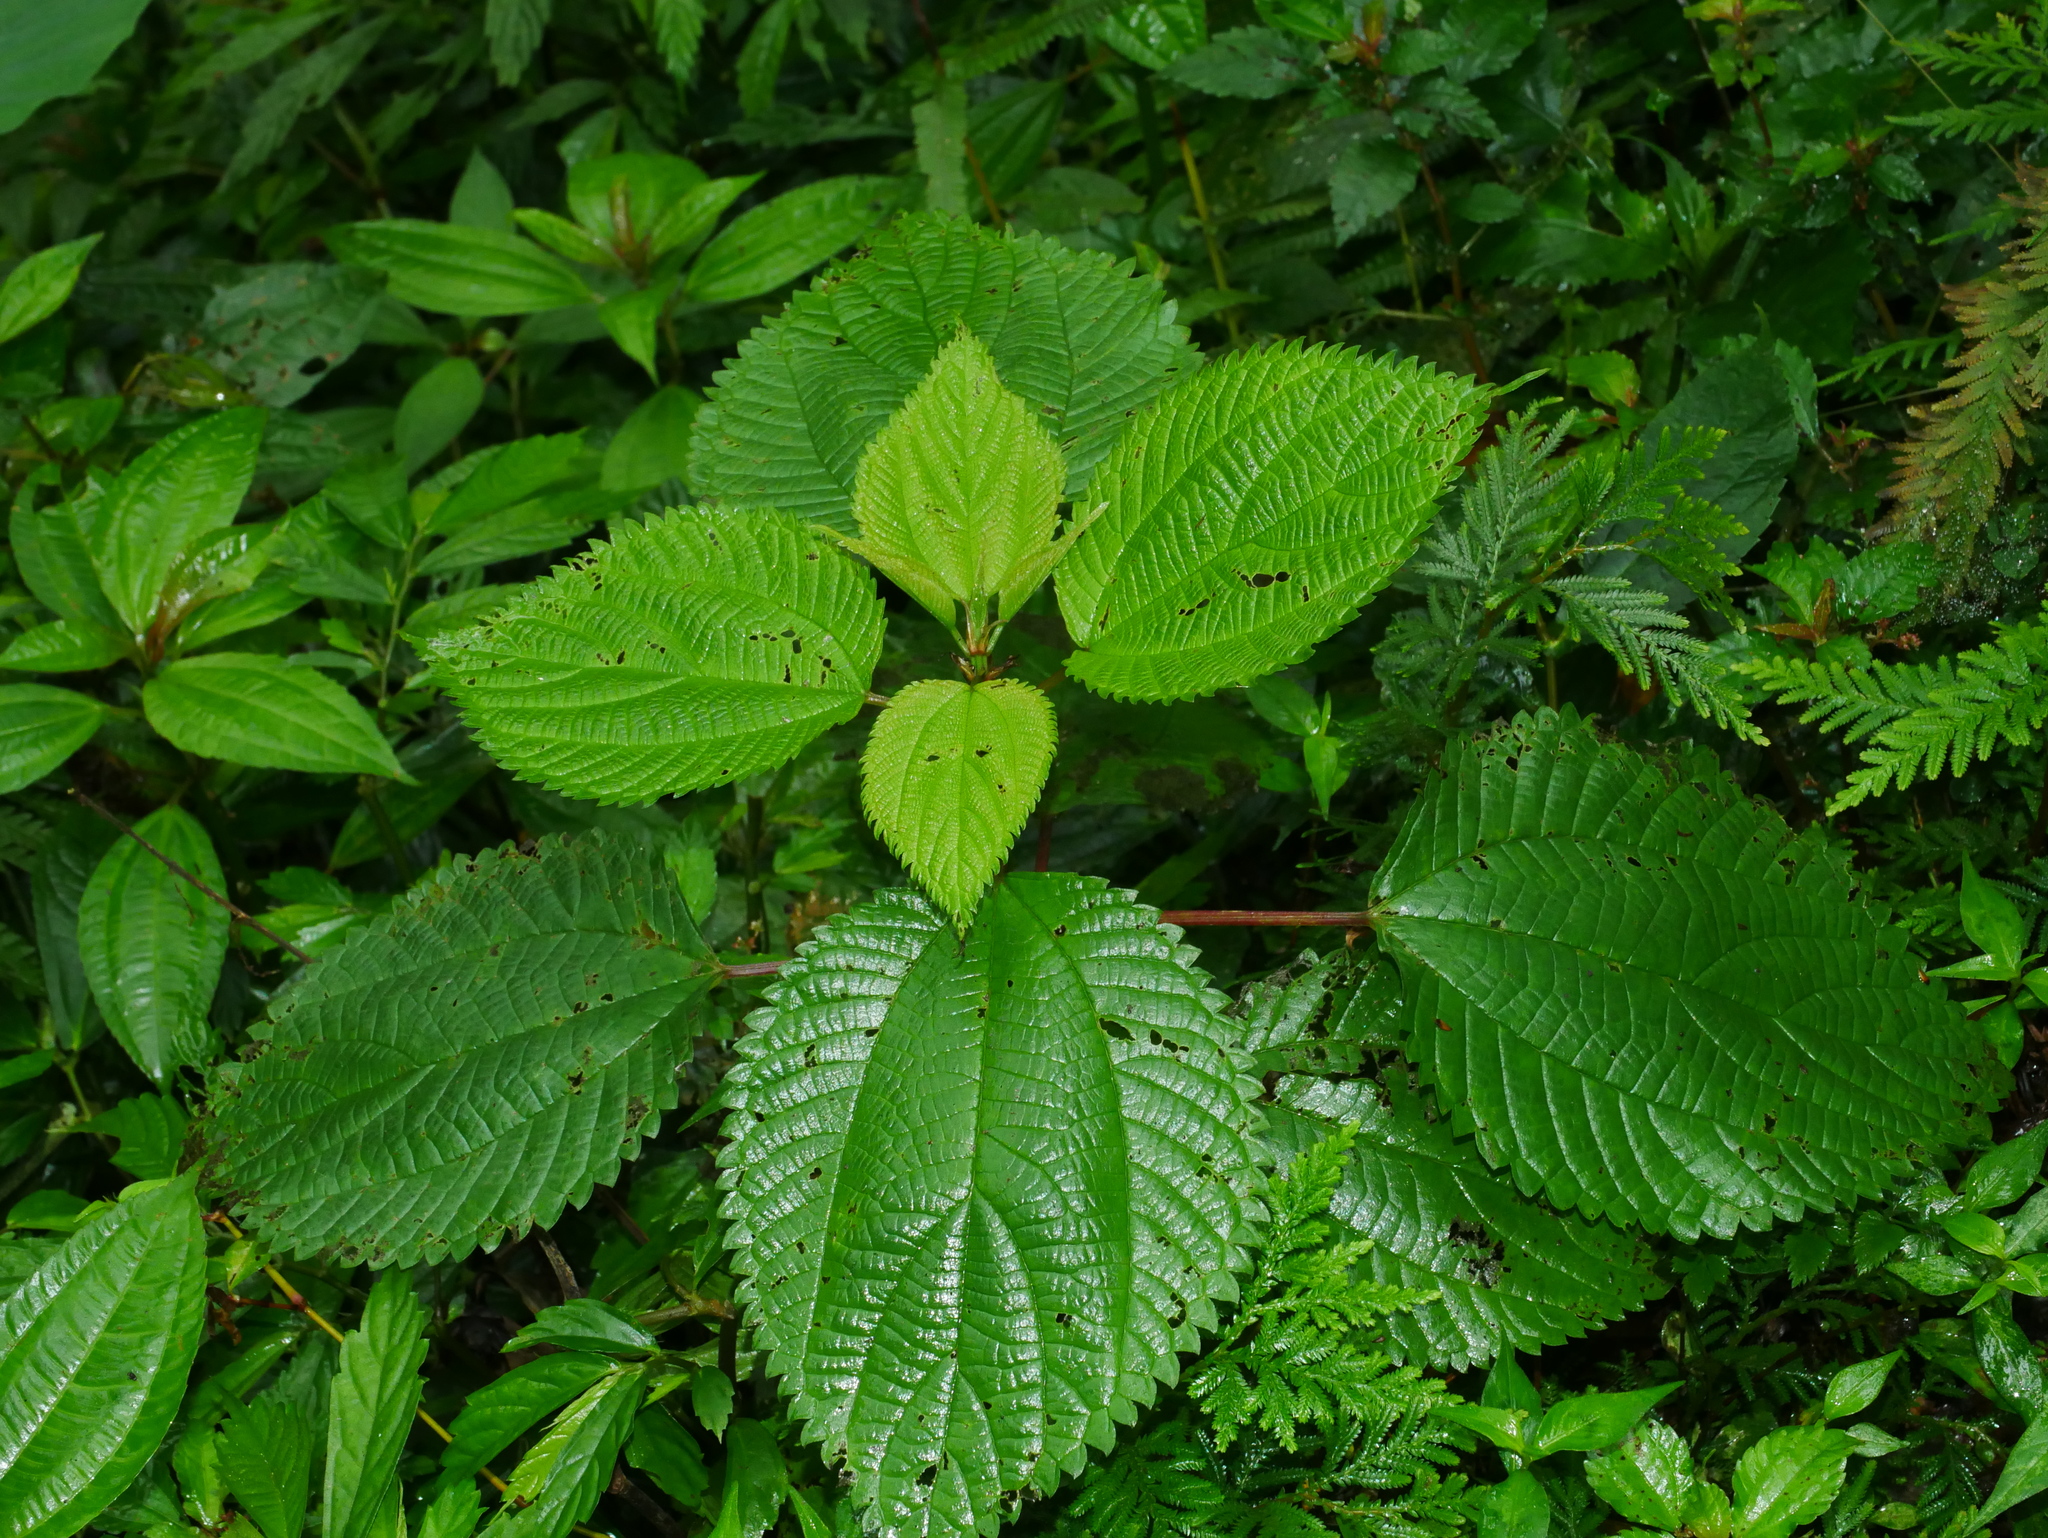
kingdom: Plantae
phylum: Tracheophyta
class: Magnoliopsida
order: Rosales
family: Urticaceae
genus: Boehmeria
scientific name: Boehmeria sieboldiana
